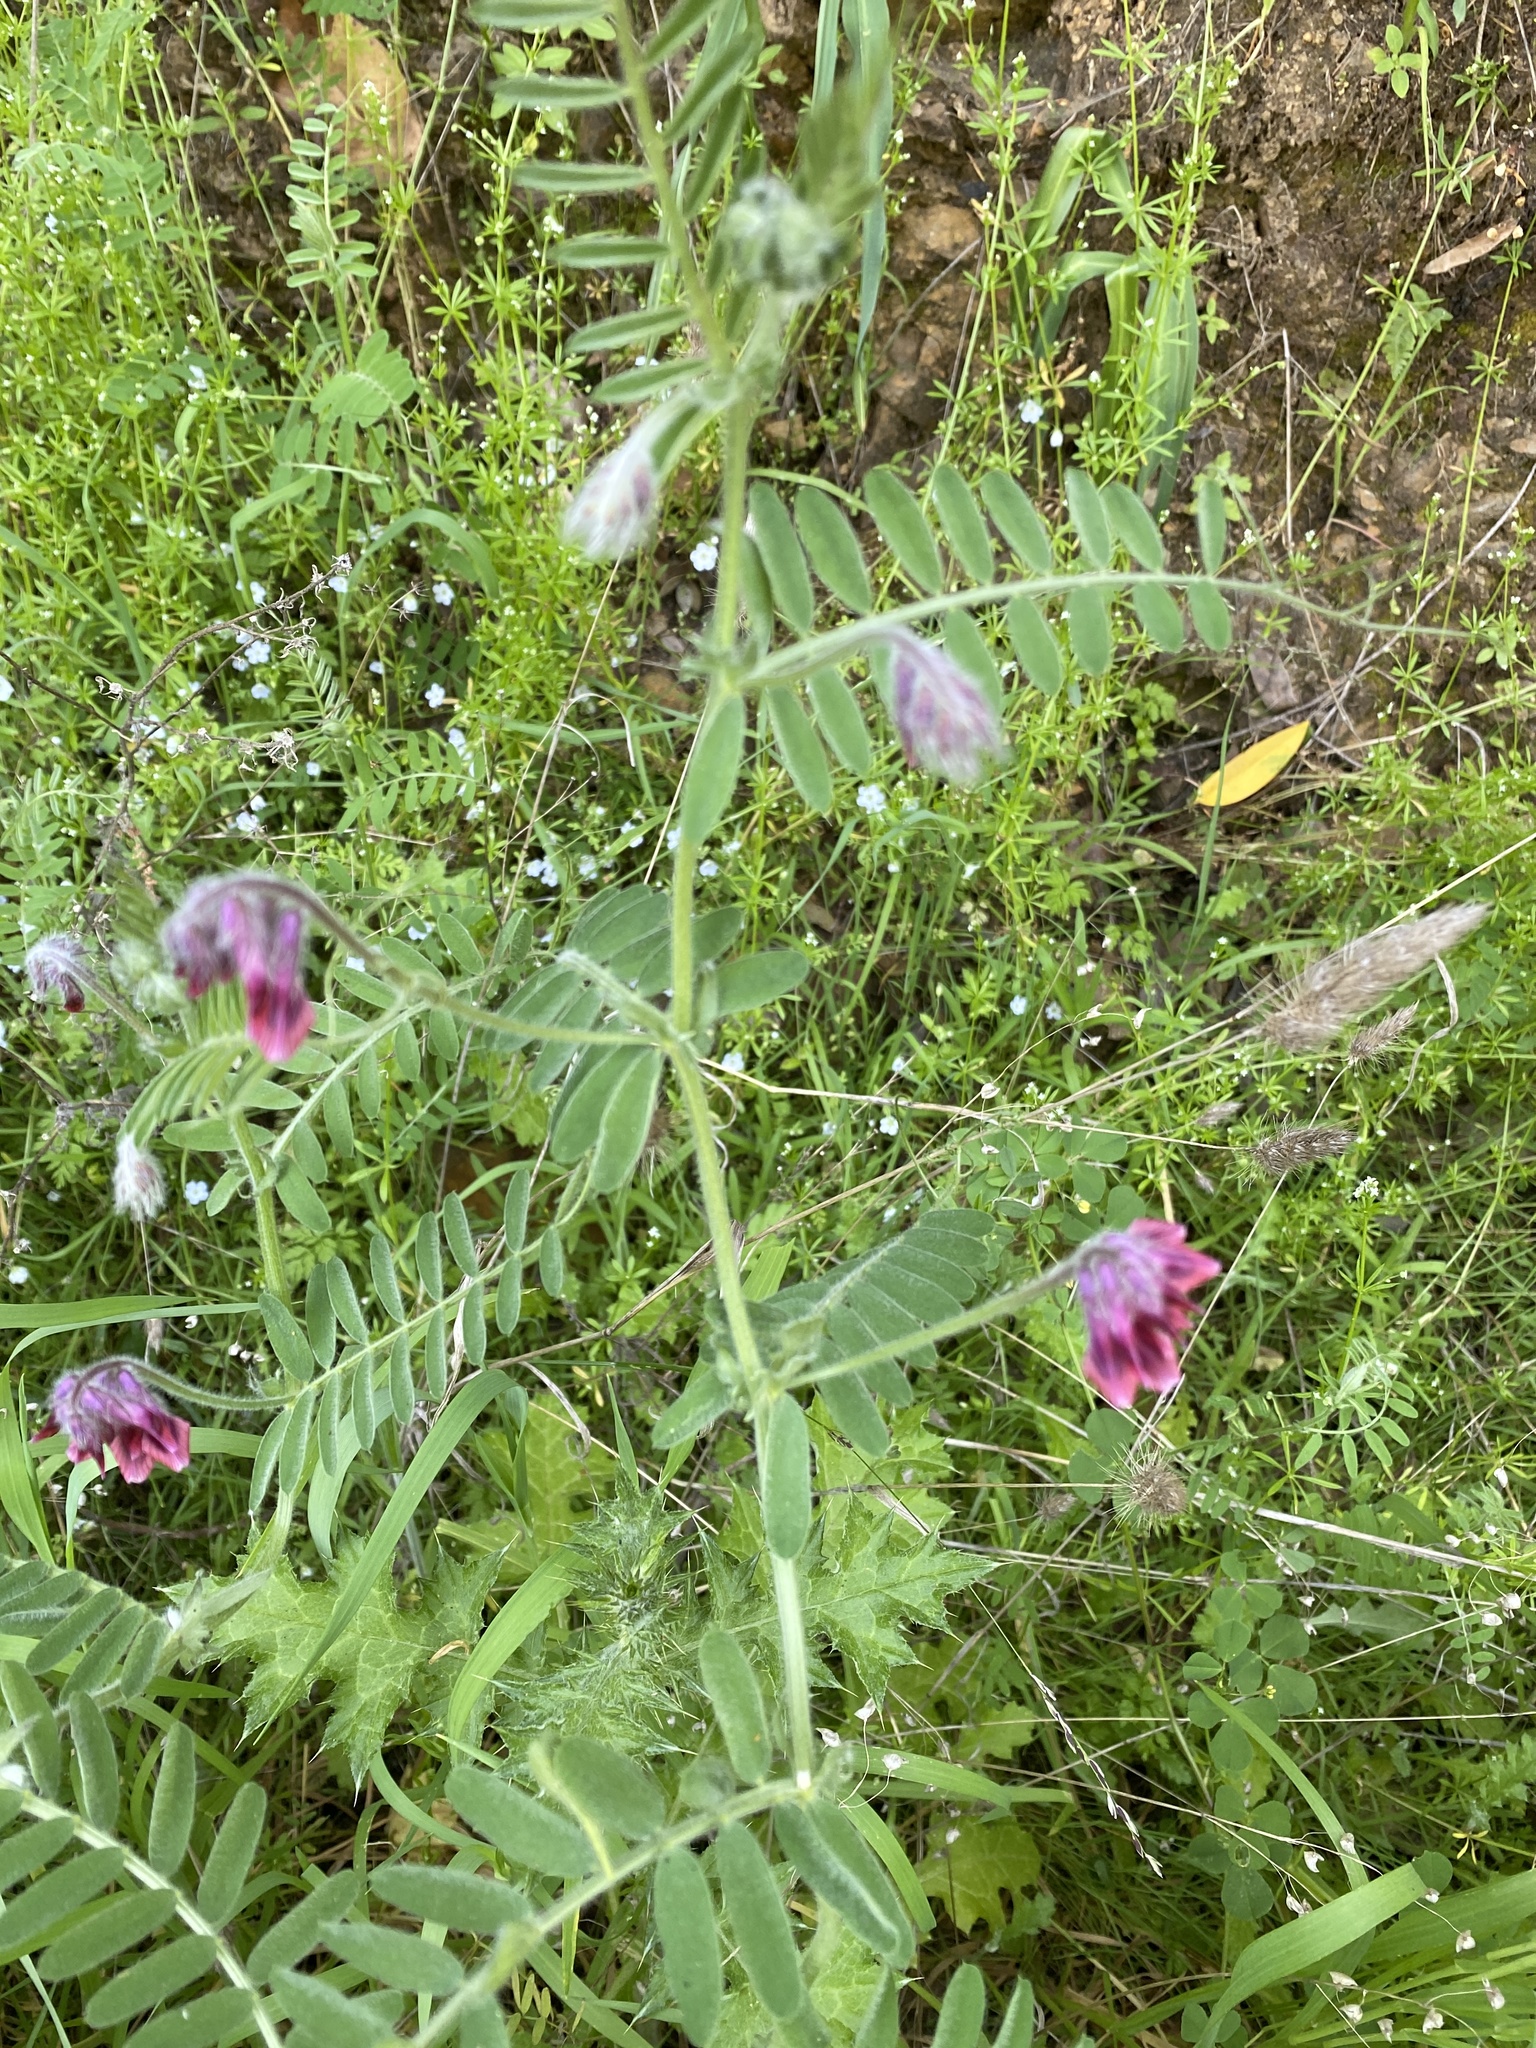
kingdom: Plantae
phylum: Tracheophyta
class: Magnoliopsida
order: Fabales
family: Fabaceae
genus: Vicia
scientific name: Vicia benghalensis
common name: Purple vetch
